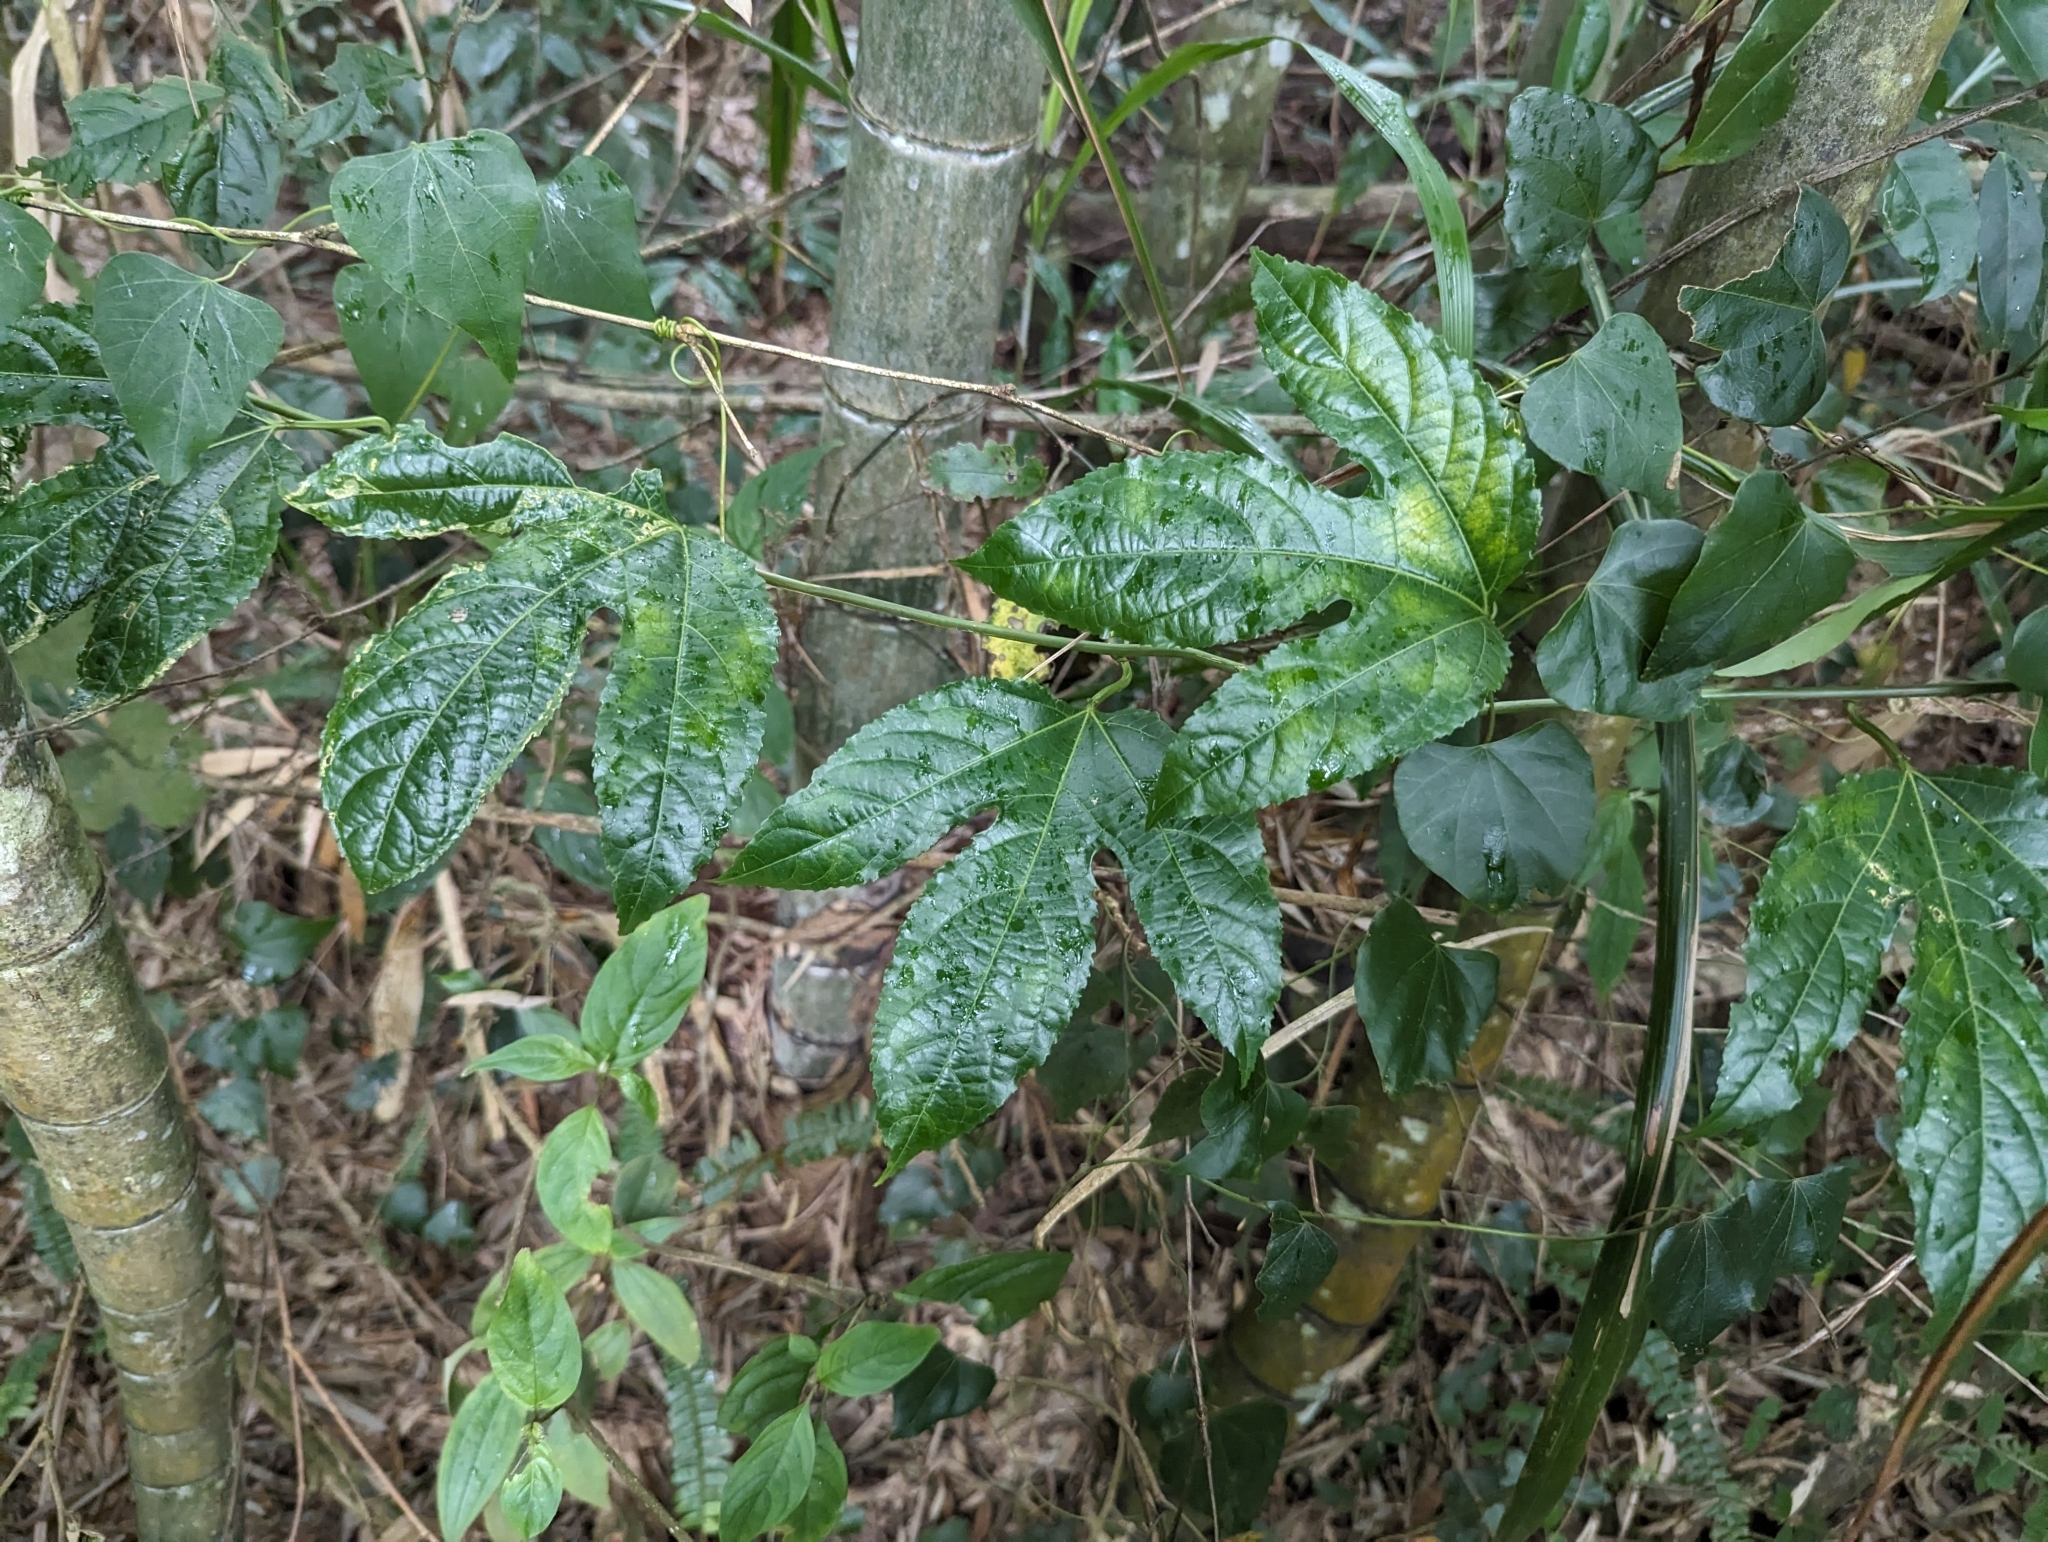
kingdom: Plantae
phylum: Tracheophyta
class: Magnoliopsida
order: Malpighiales
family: Passifloraceae
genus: Passiflora
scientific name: Passiflora edulis
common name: Purple granadilla
